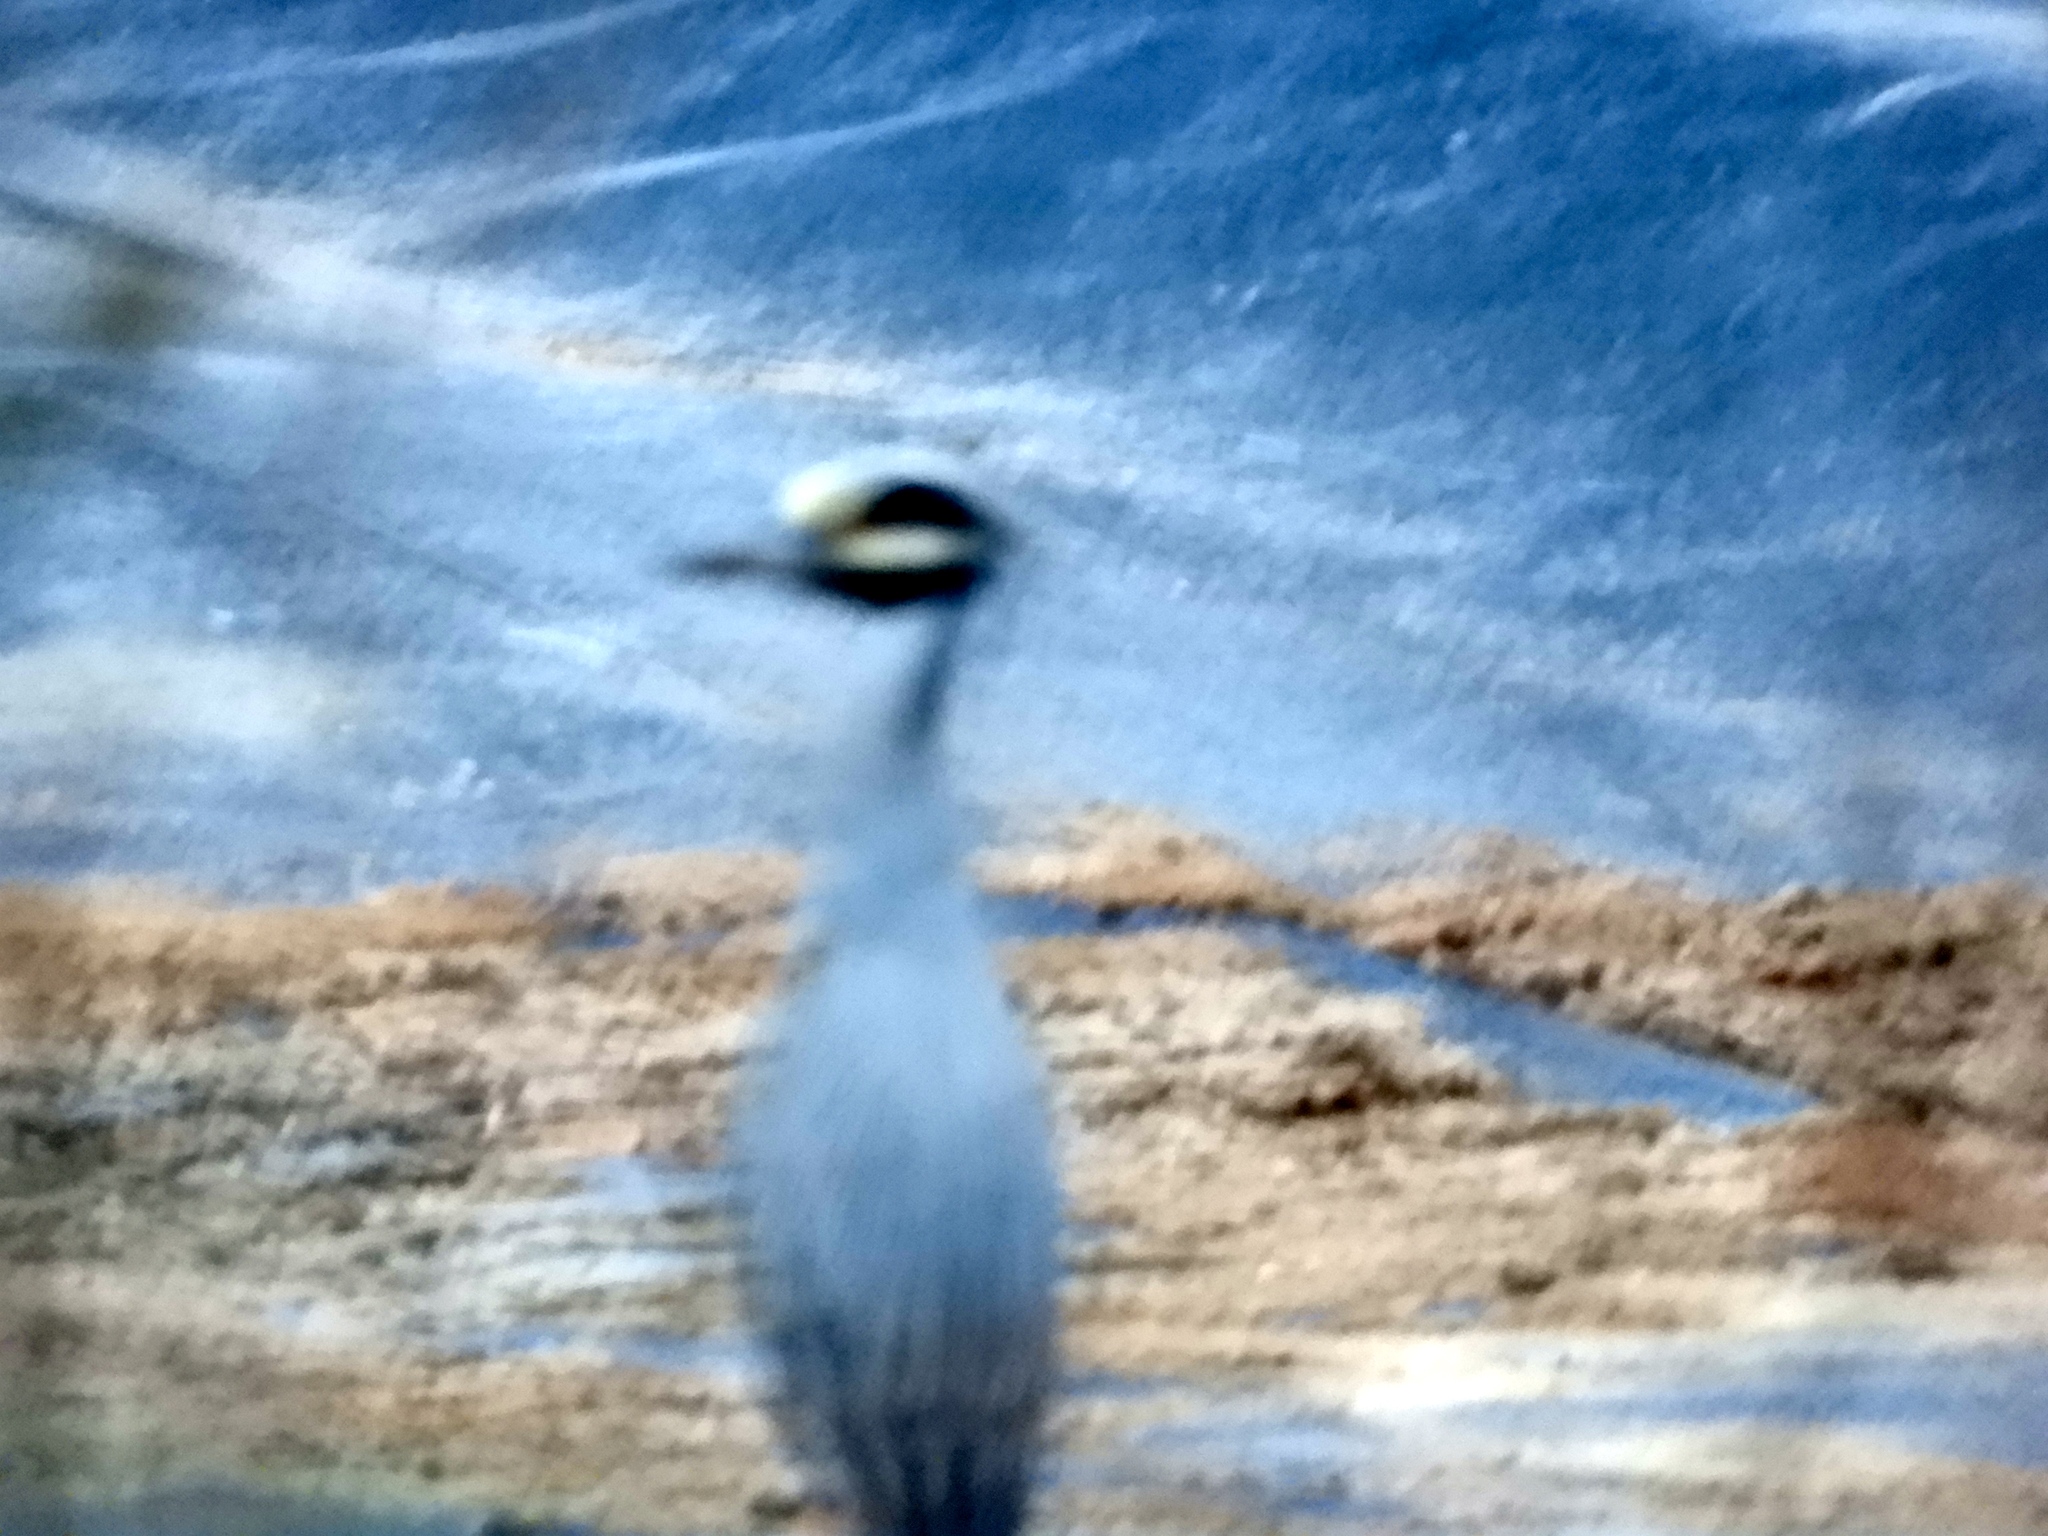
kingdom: Animalia
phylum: Chordata
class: Aves
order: Pelecaniformes
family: Ardeidae
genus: Nyctanassa
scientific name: Nyctanassa violacea
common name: Yellow-crowned night heron
